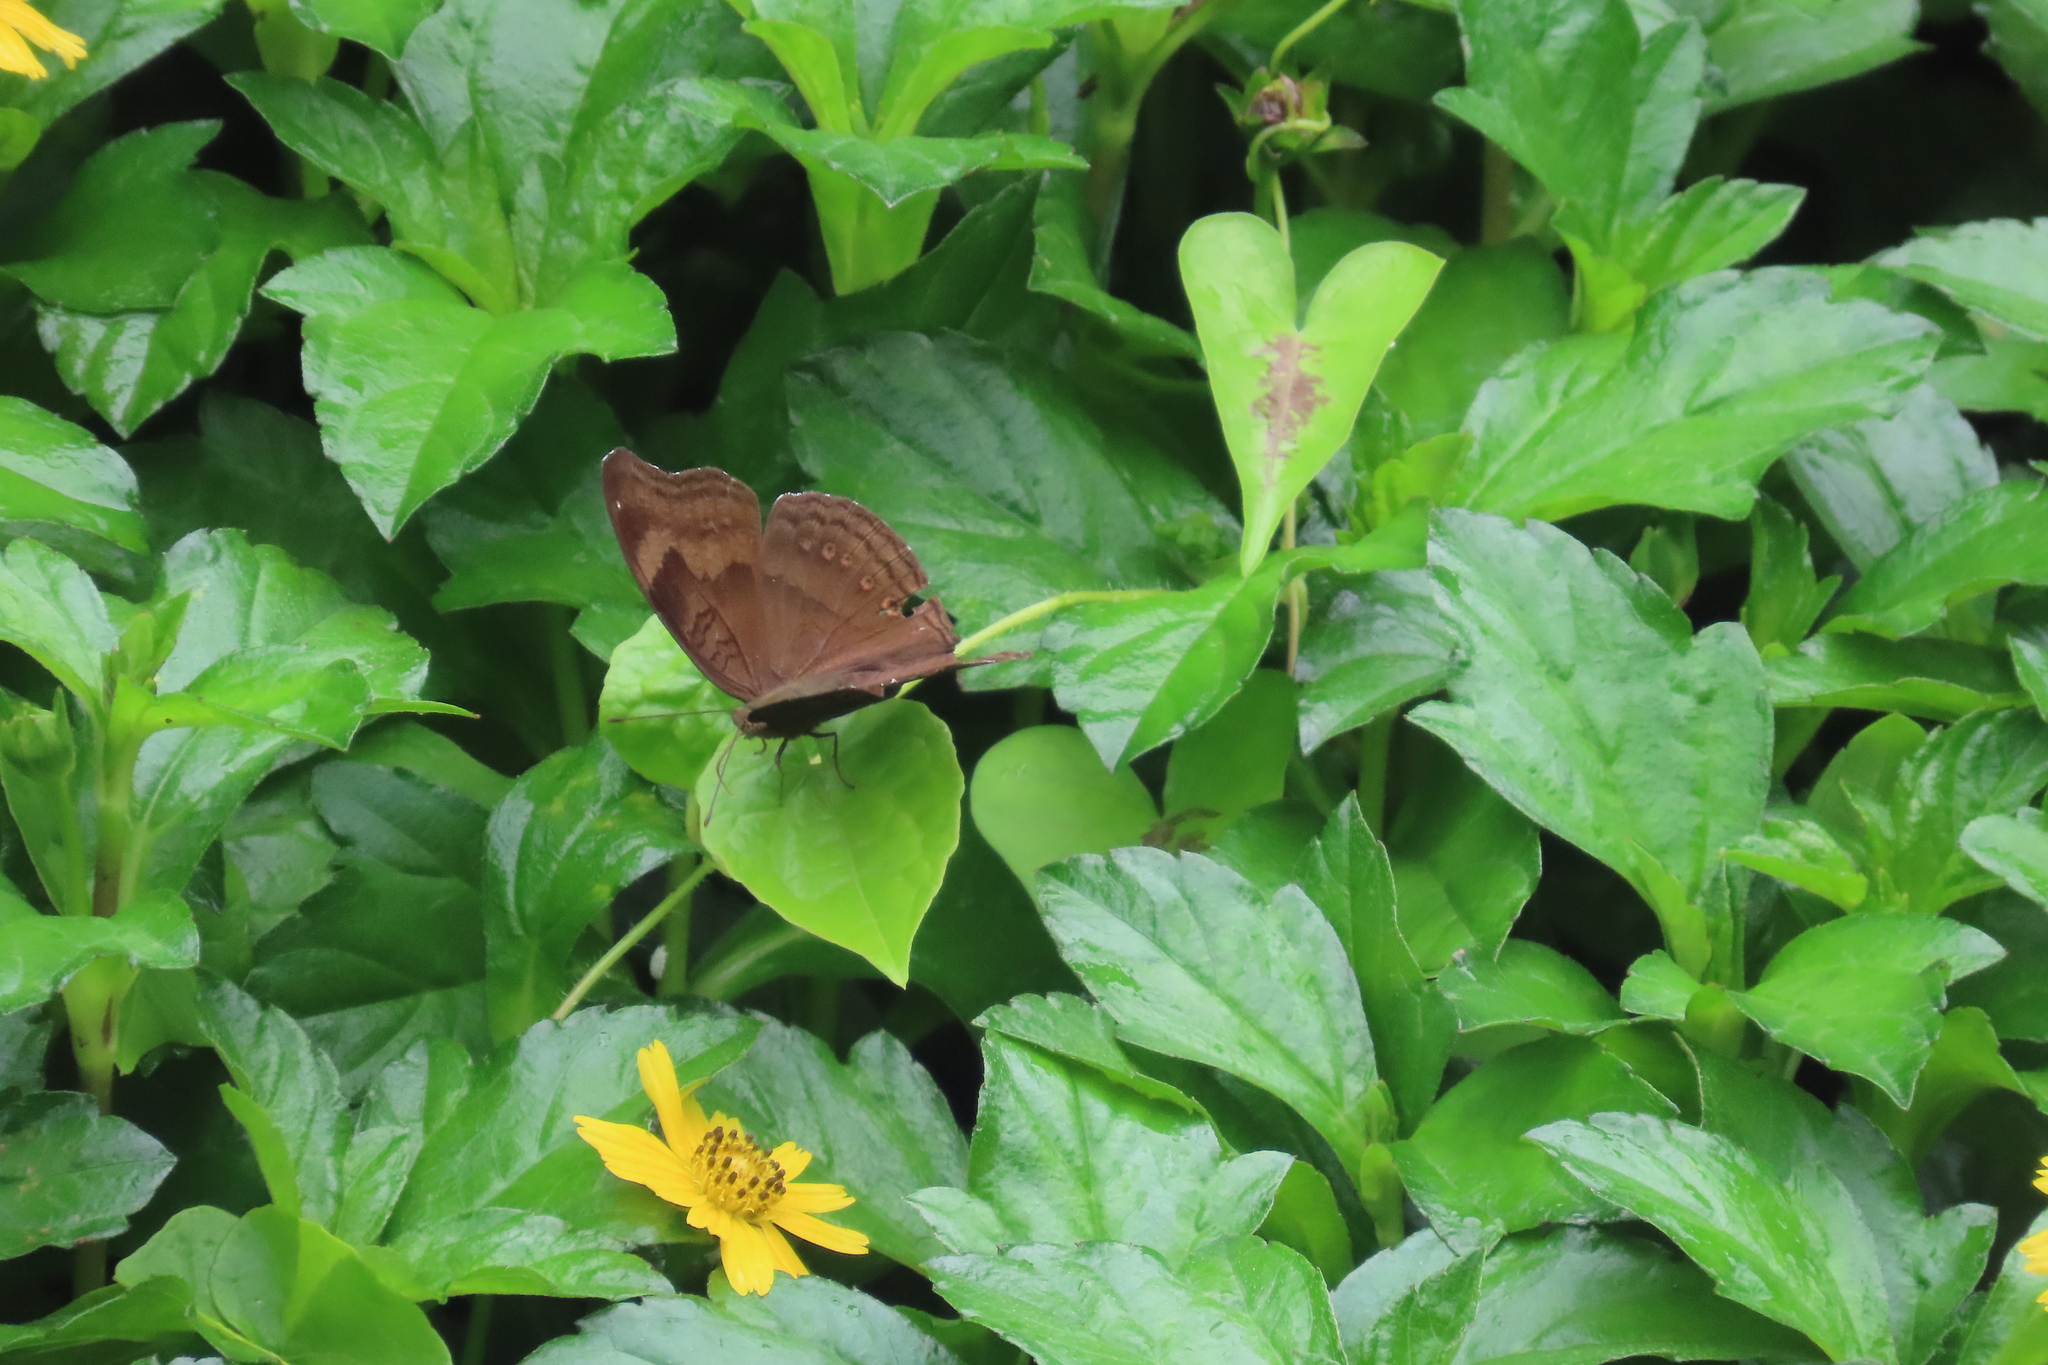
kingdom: Animalia
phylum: Arthropoda
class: Insecta
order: Lepidoptera
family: Nymphalidae
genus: Junonia
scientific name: Junonia iphita
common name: Chocolate pansy
